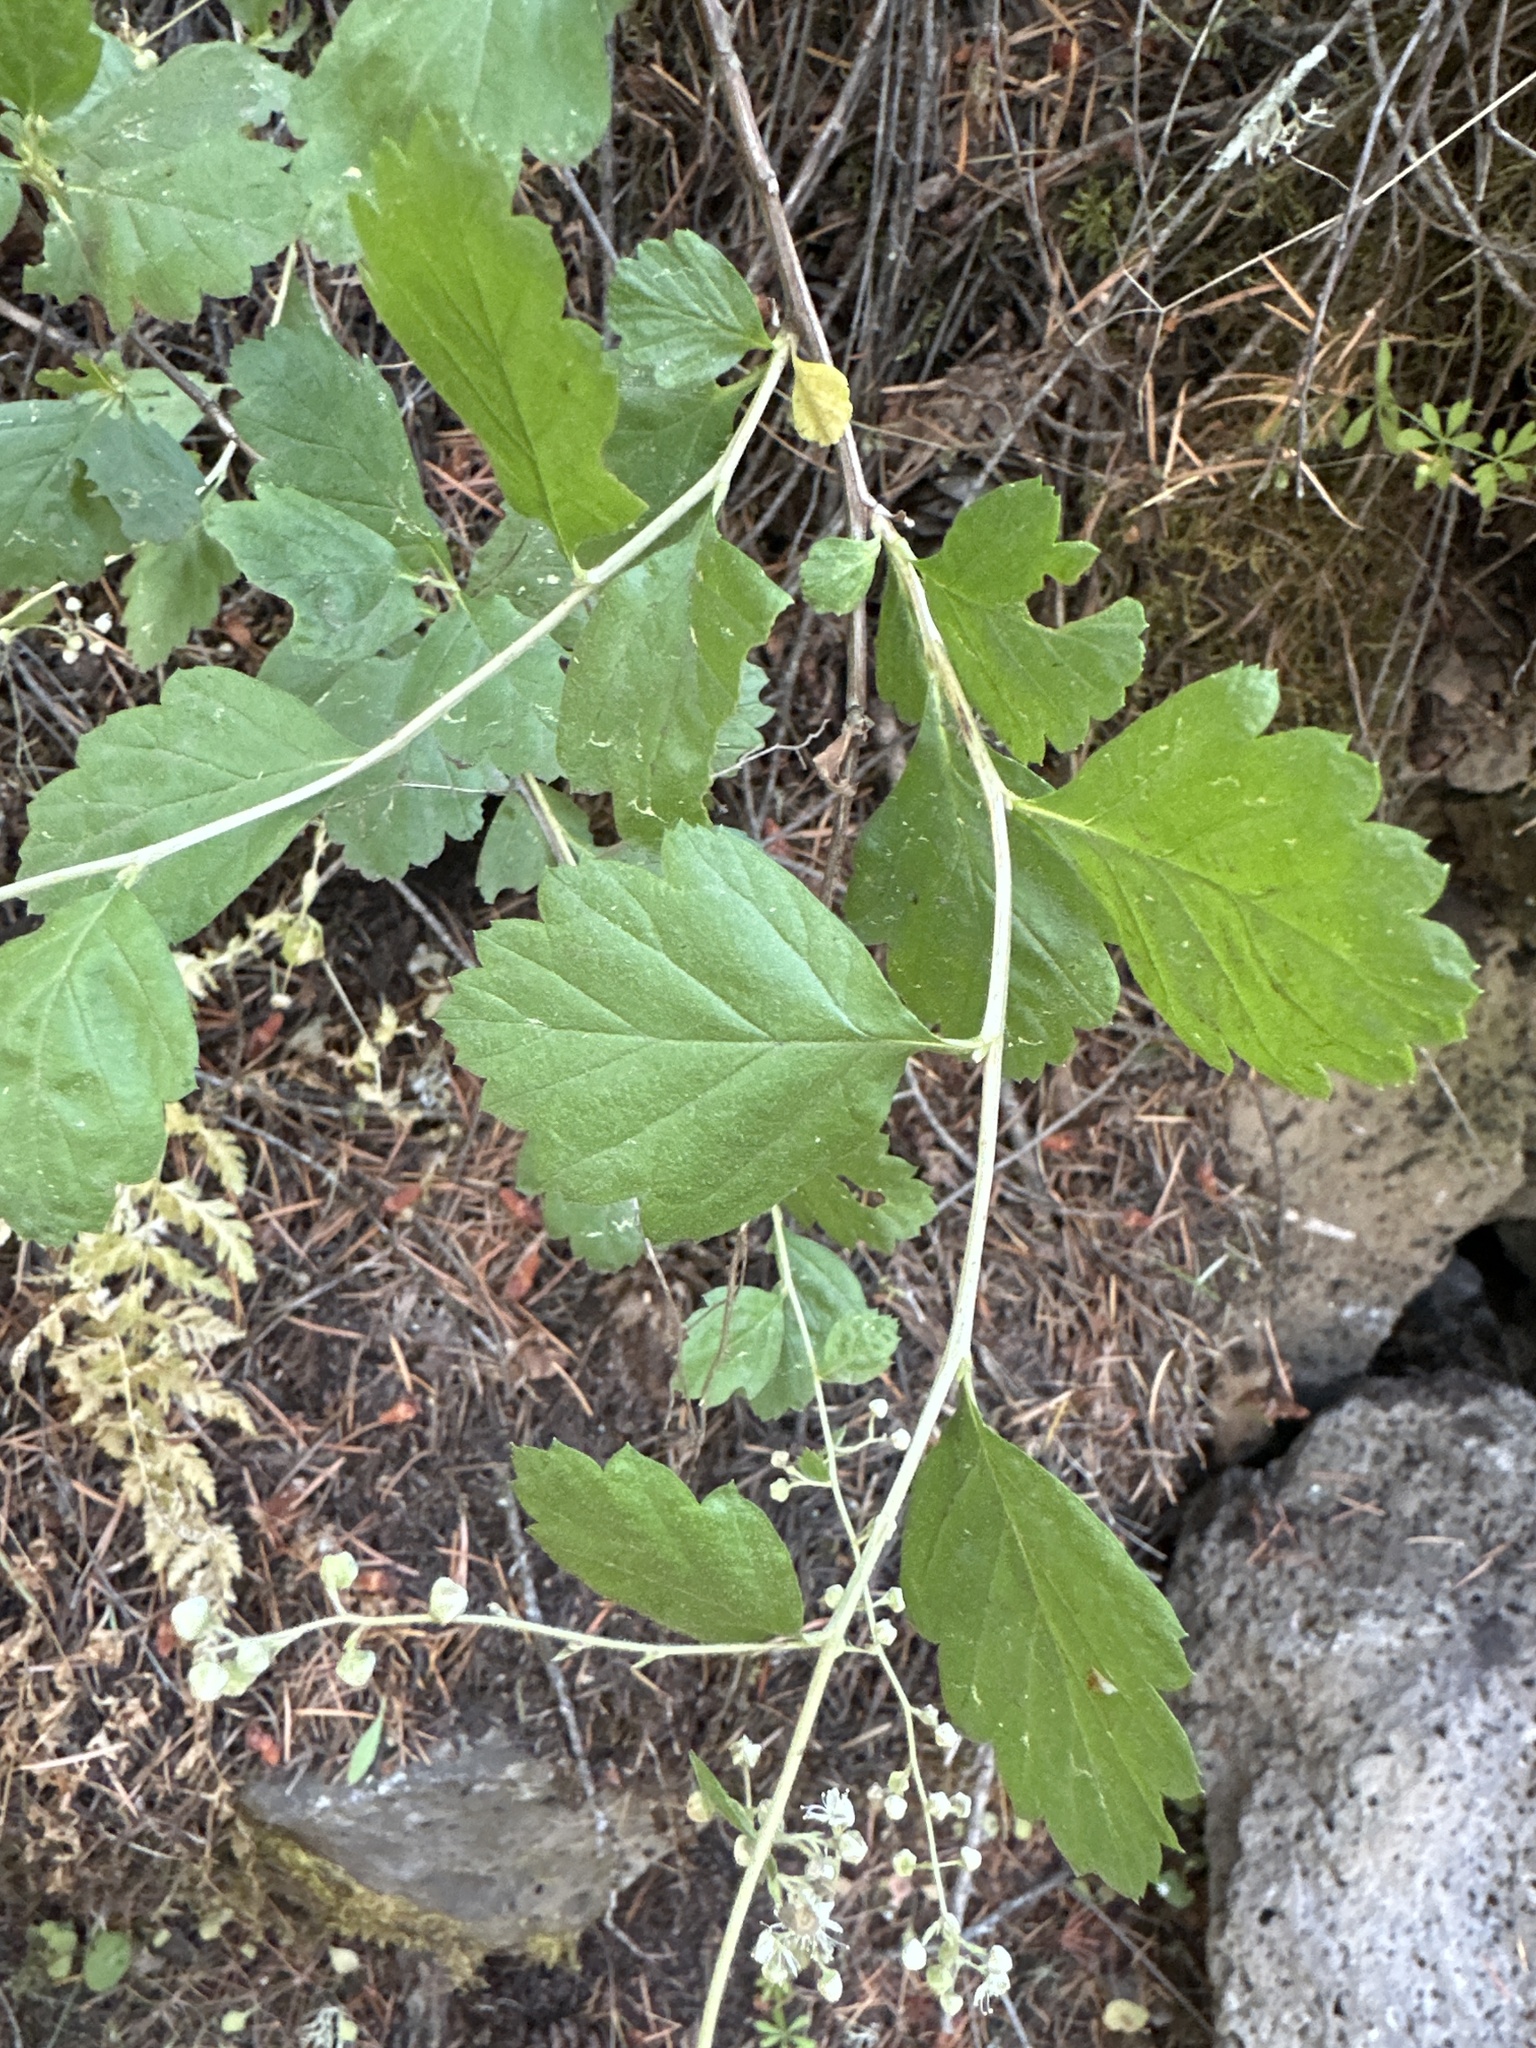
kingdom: Plantae
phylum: Tracheophyta
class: Magnoliopsida
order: Rosales
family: Rosaceae
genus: Holodiscus
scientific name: Holodiscus discolor
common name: Oceanspray
